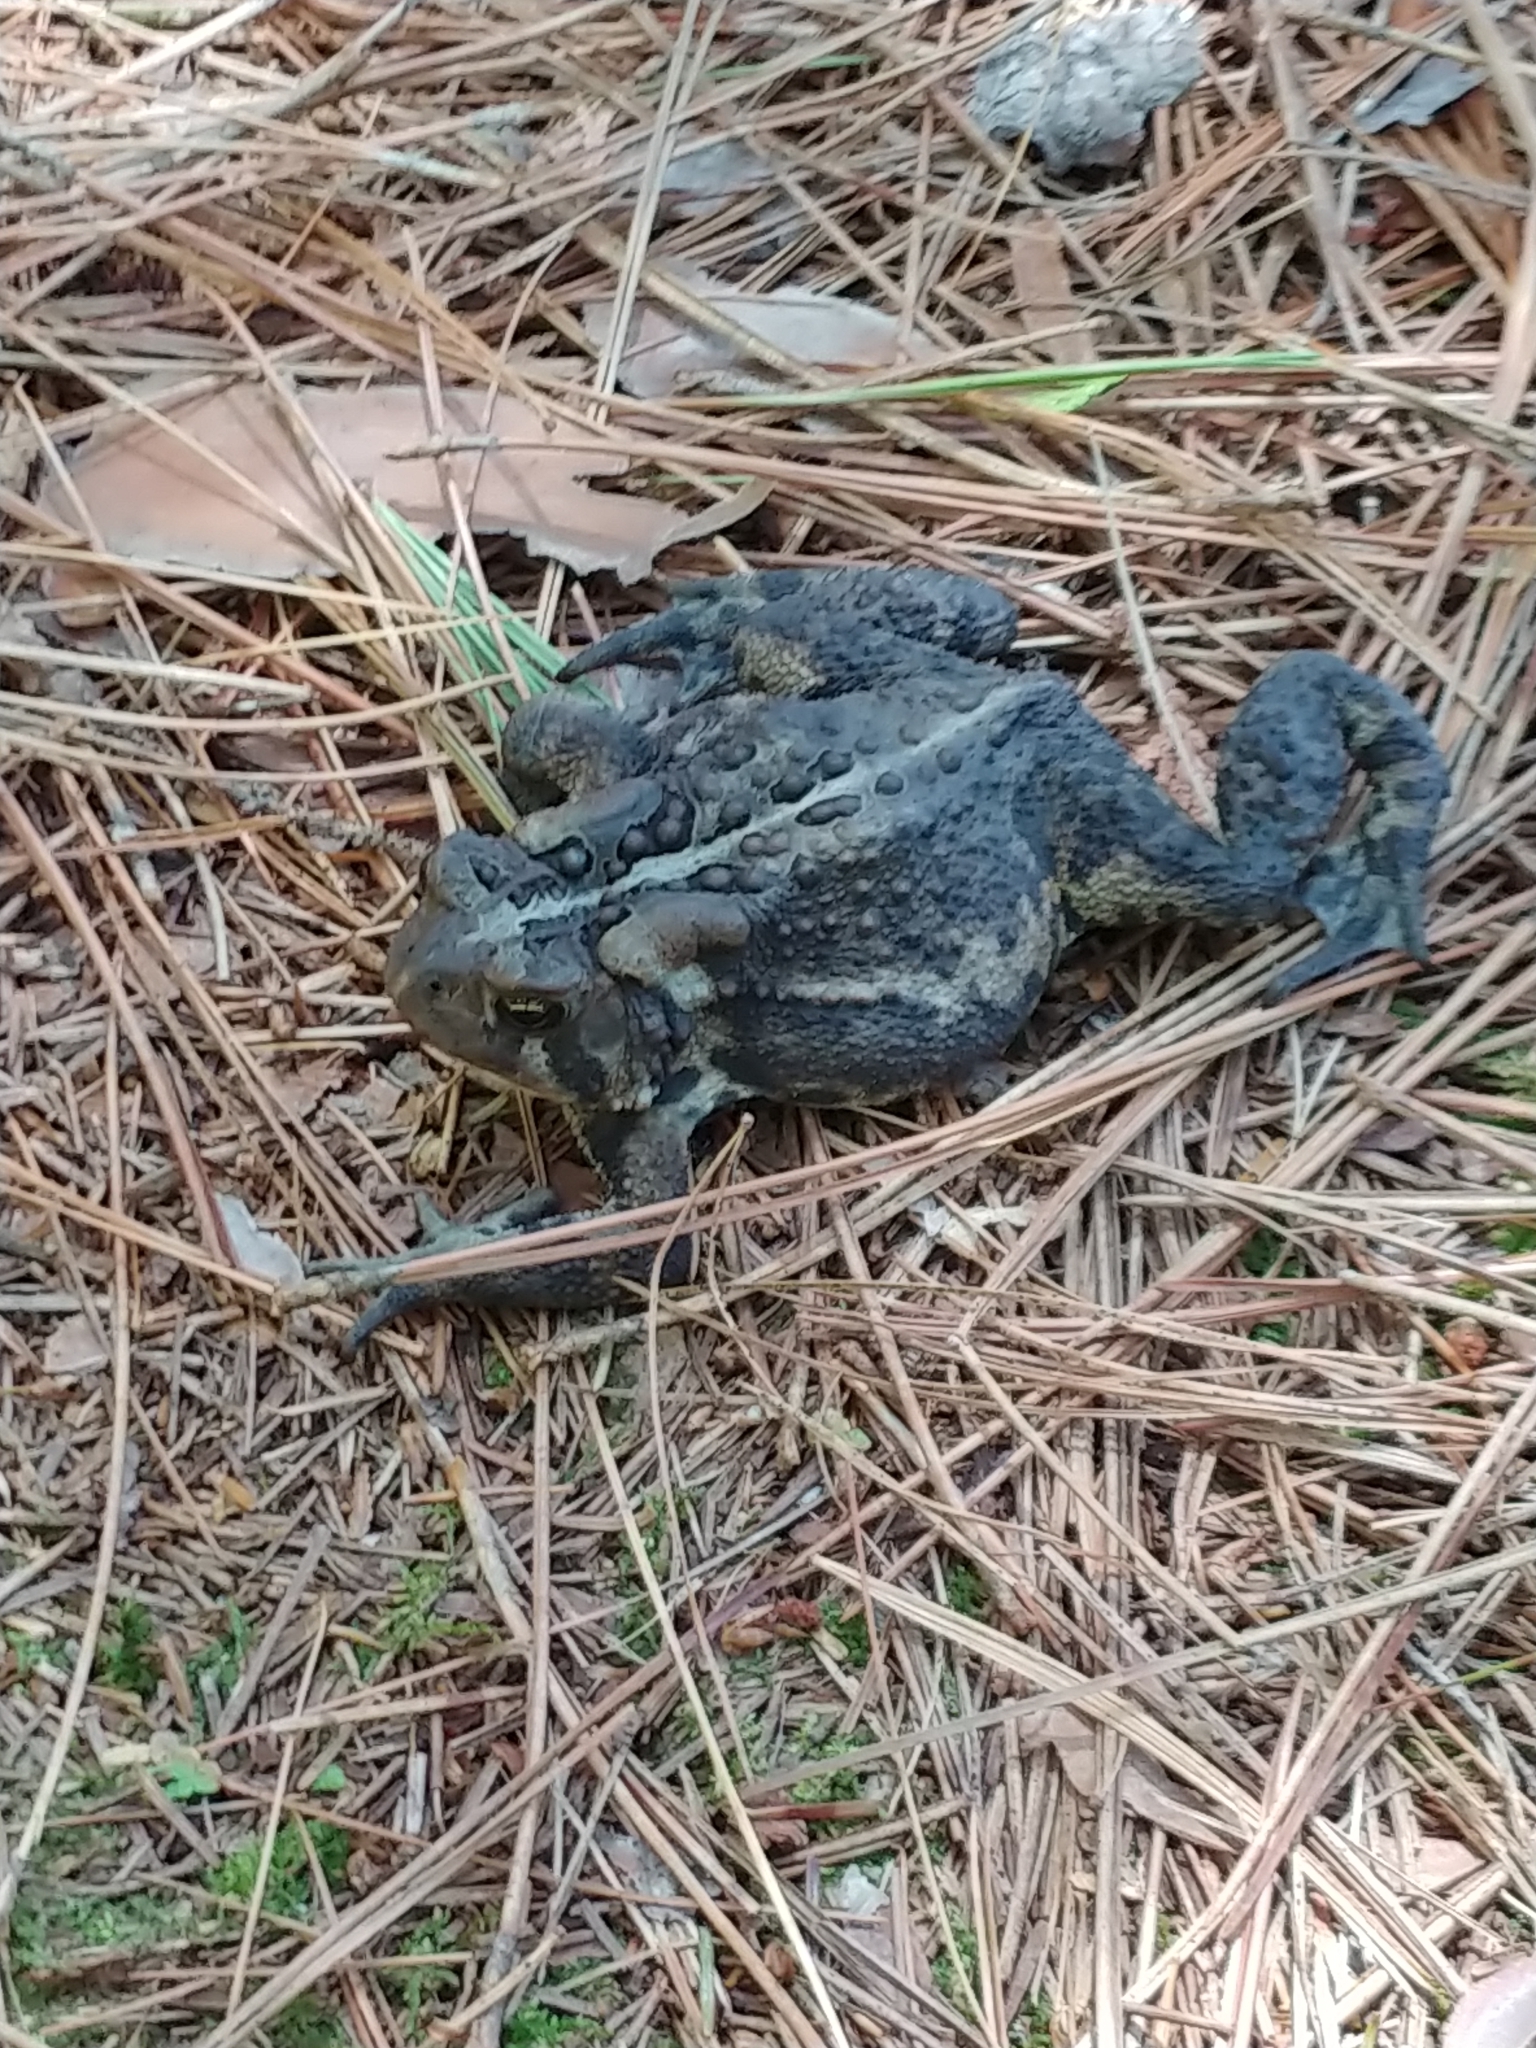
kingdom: Animalia
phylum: Chordata
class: Amphibia
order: Anura
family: Bufonidae
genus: Anaxyrus
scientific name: Anaxyrus americanus
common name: American toad
